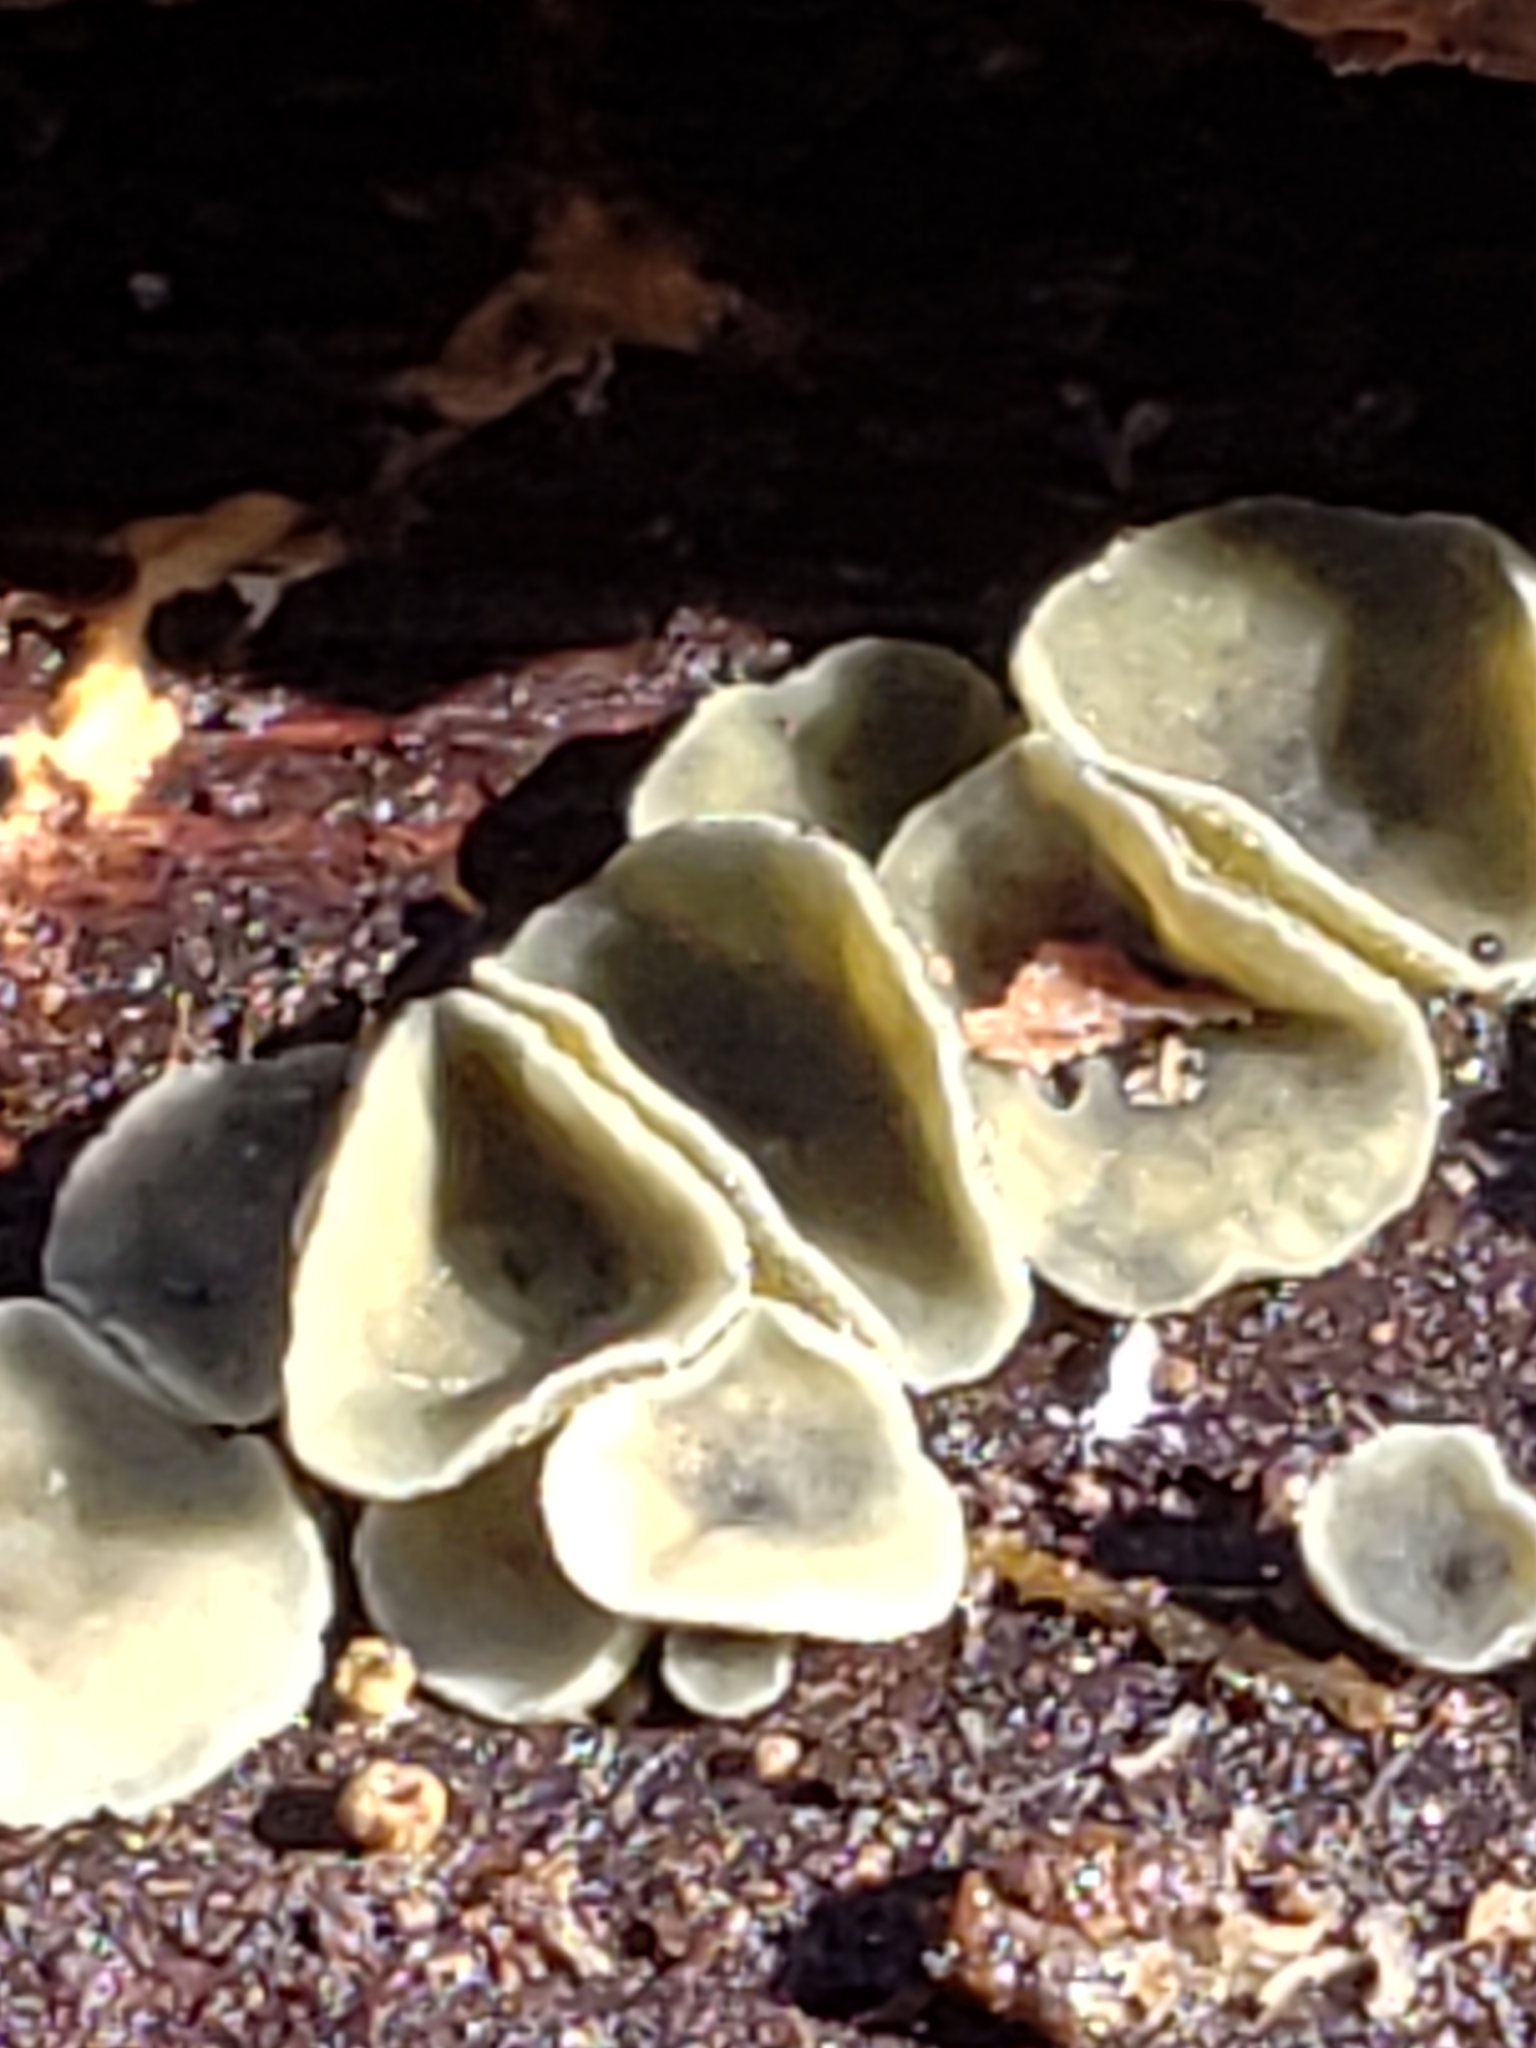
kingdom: Fungi
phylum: Ascomycota
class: Leotiomycetes
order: Helotiales
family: Chlorospleniaceae
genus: Chlorosplenium
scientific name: Chlorosplenium chlora
